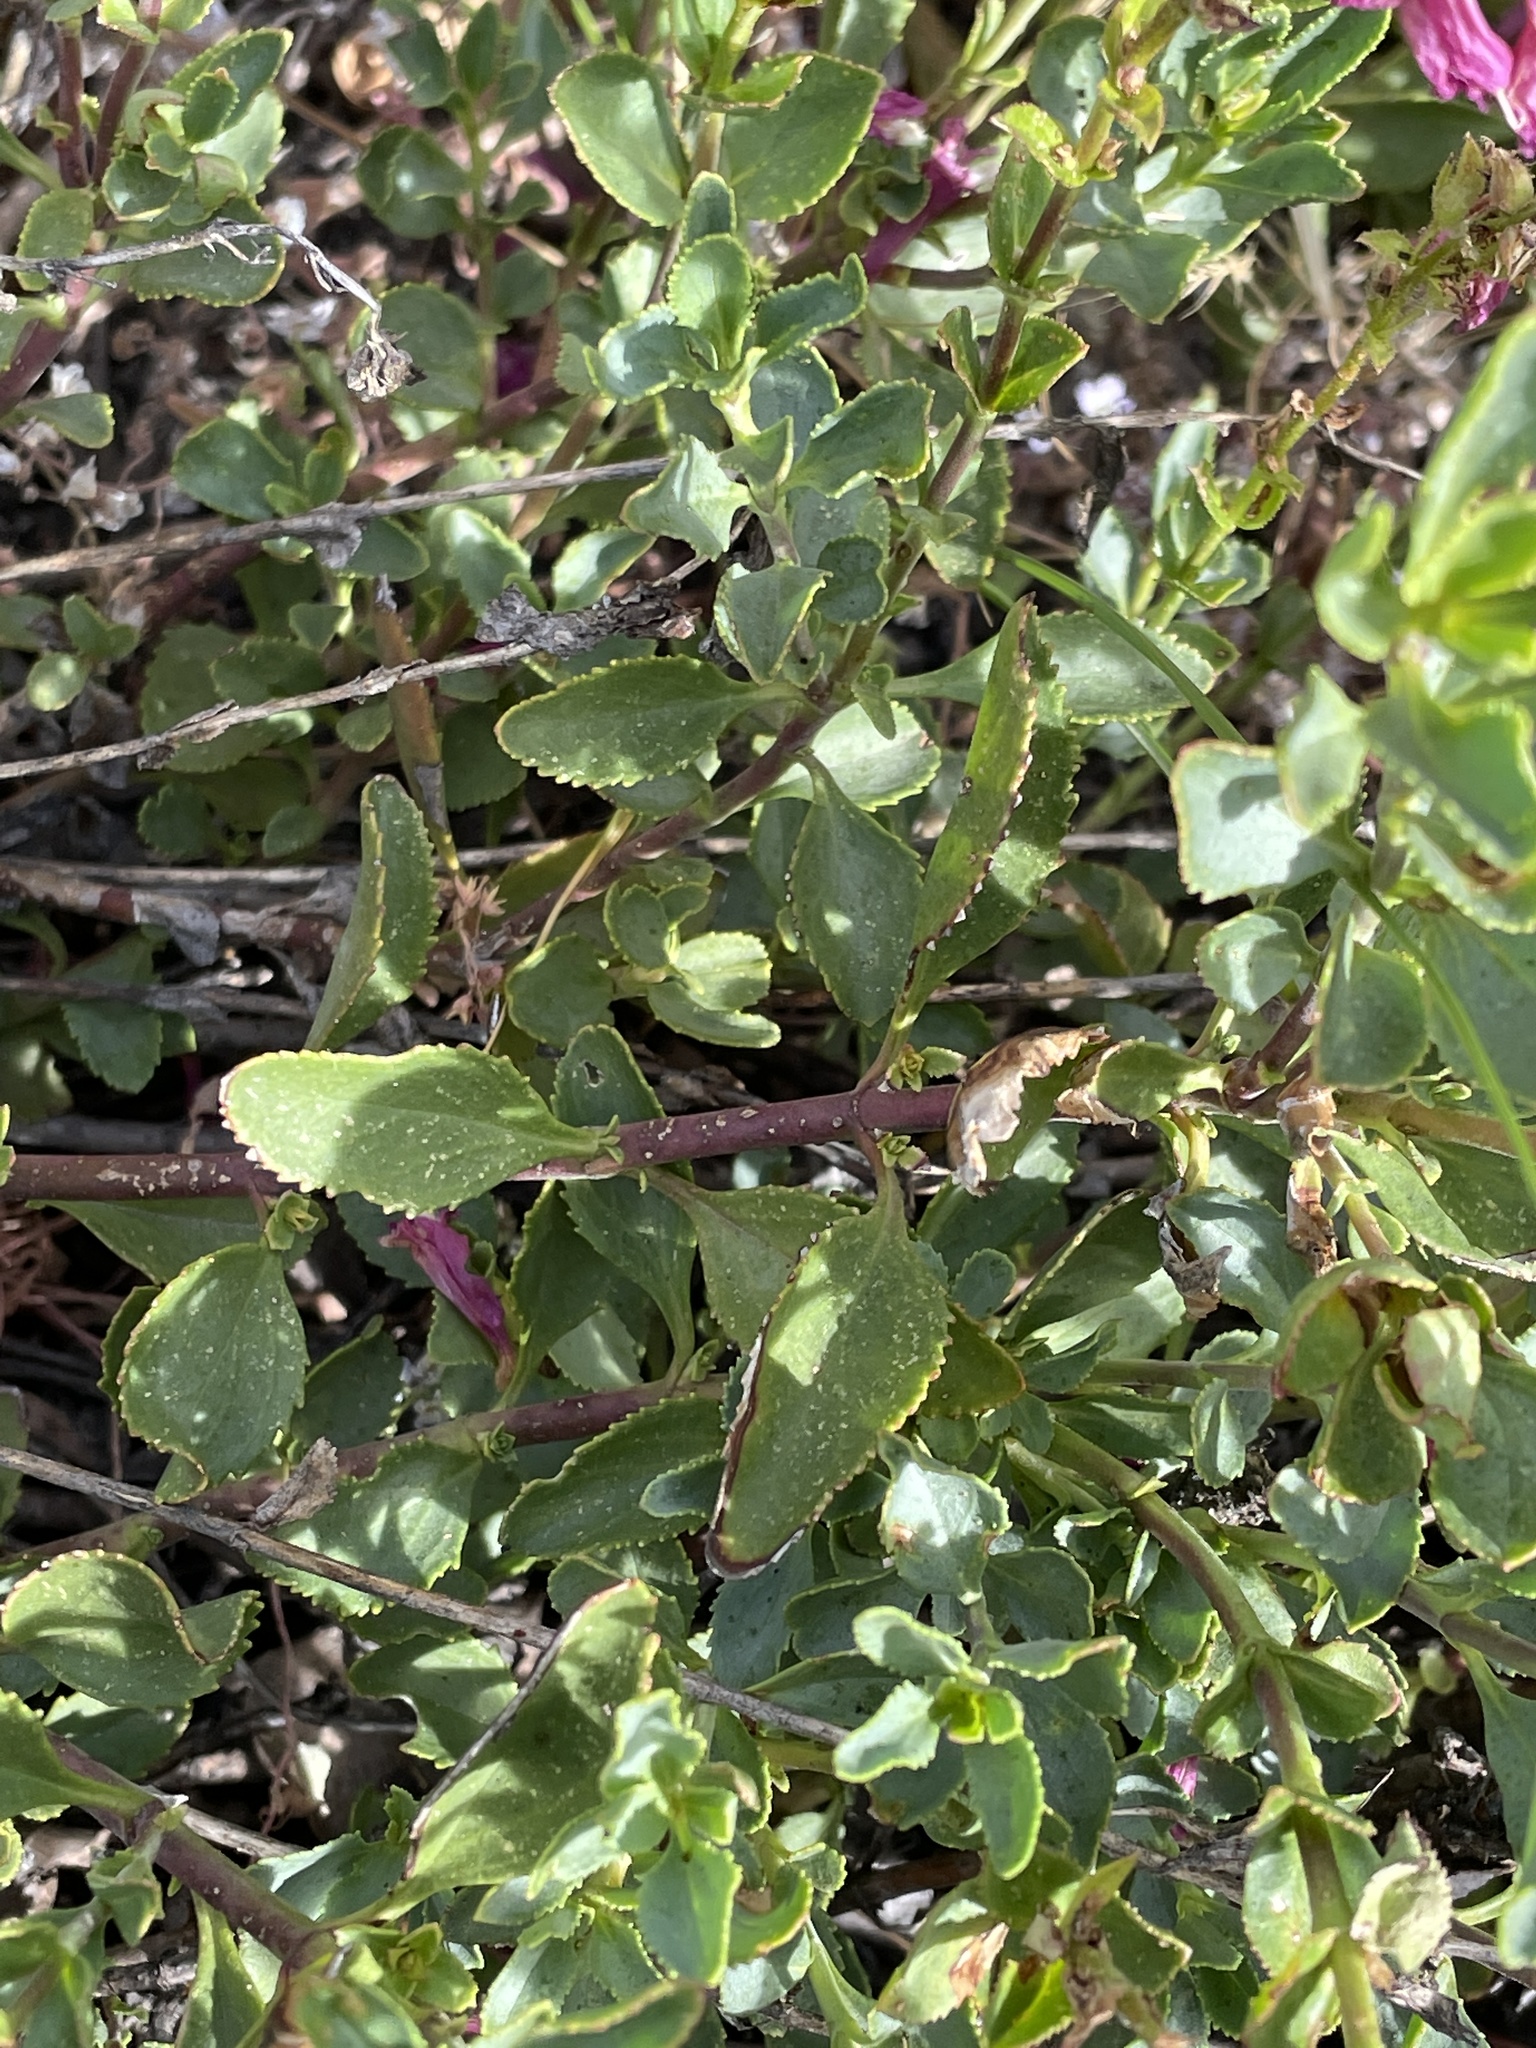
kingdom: Plantae
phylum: Tracheophyta
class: Magnoliopsida
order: Lamiales
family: Plantaginaceae
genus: Penstemon
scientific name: Penstemon newberryi
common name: Mountain-pride
